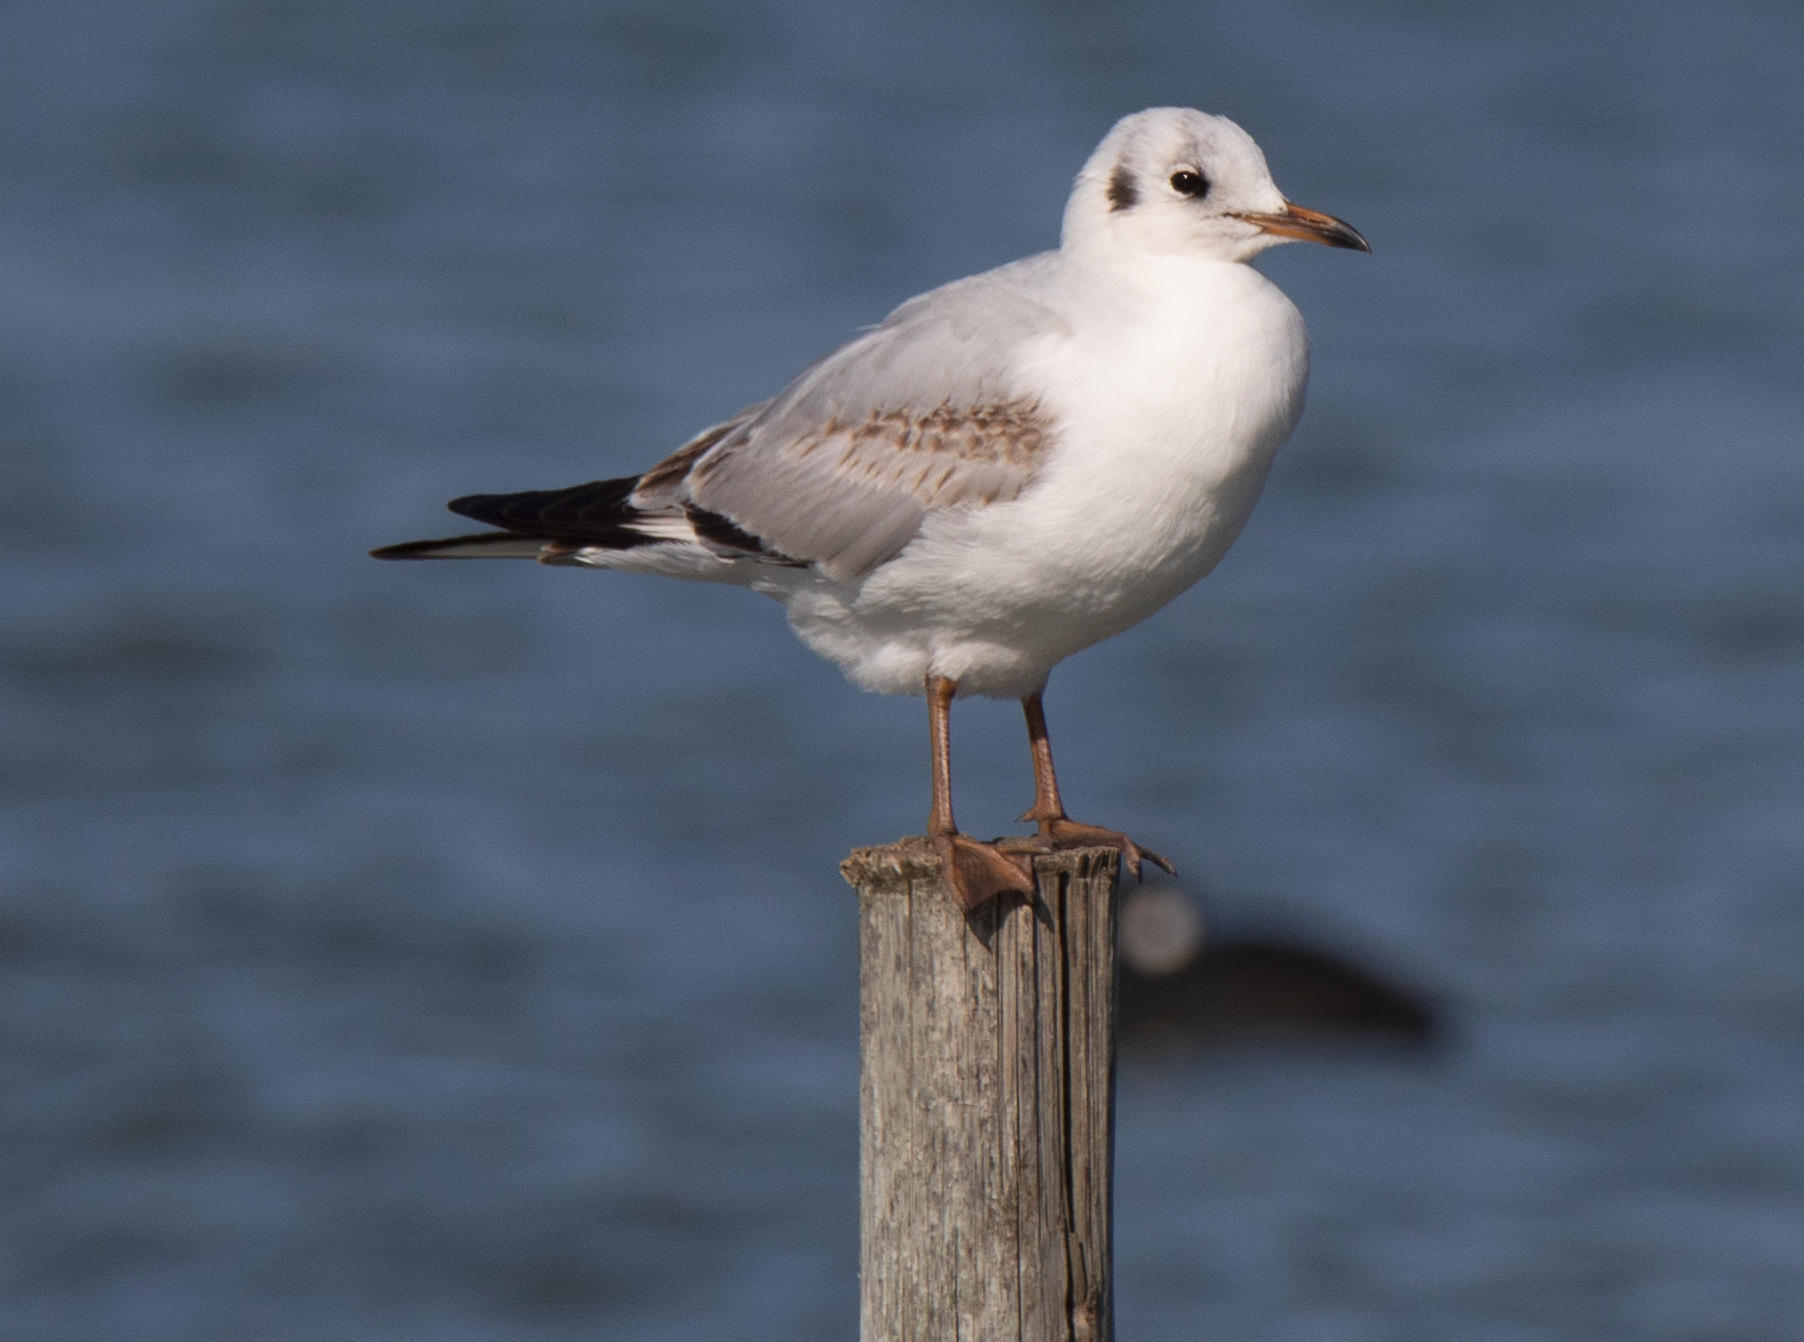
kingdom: Animalia
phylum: Chordata
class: Aves
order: Charadriiformes
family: Laridae
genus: Chroicocephalus
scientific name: Chroicocephalus ridibundus
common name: Black-headed gull
